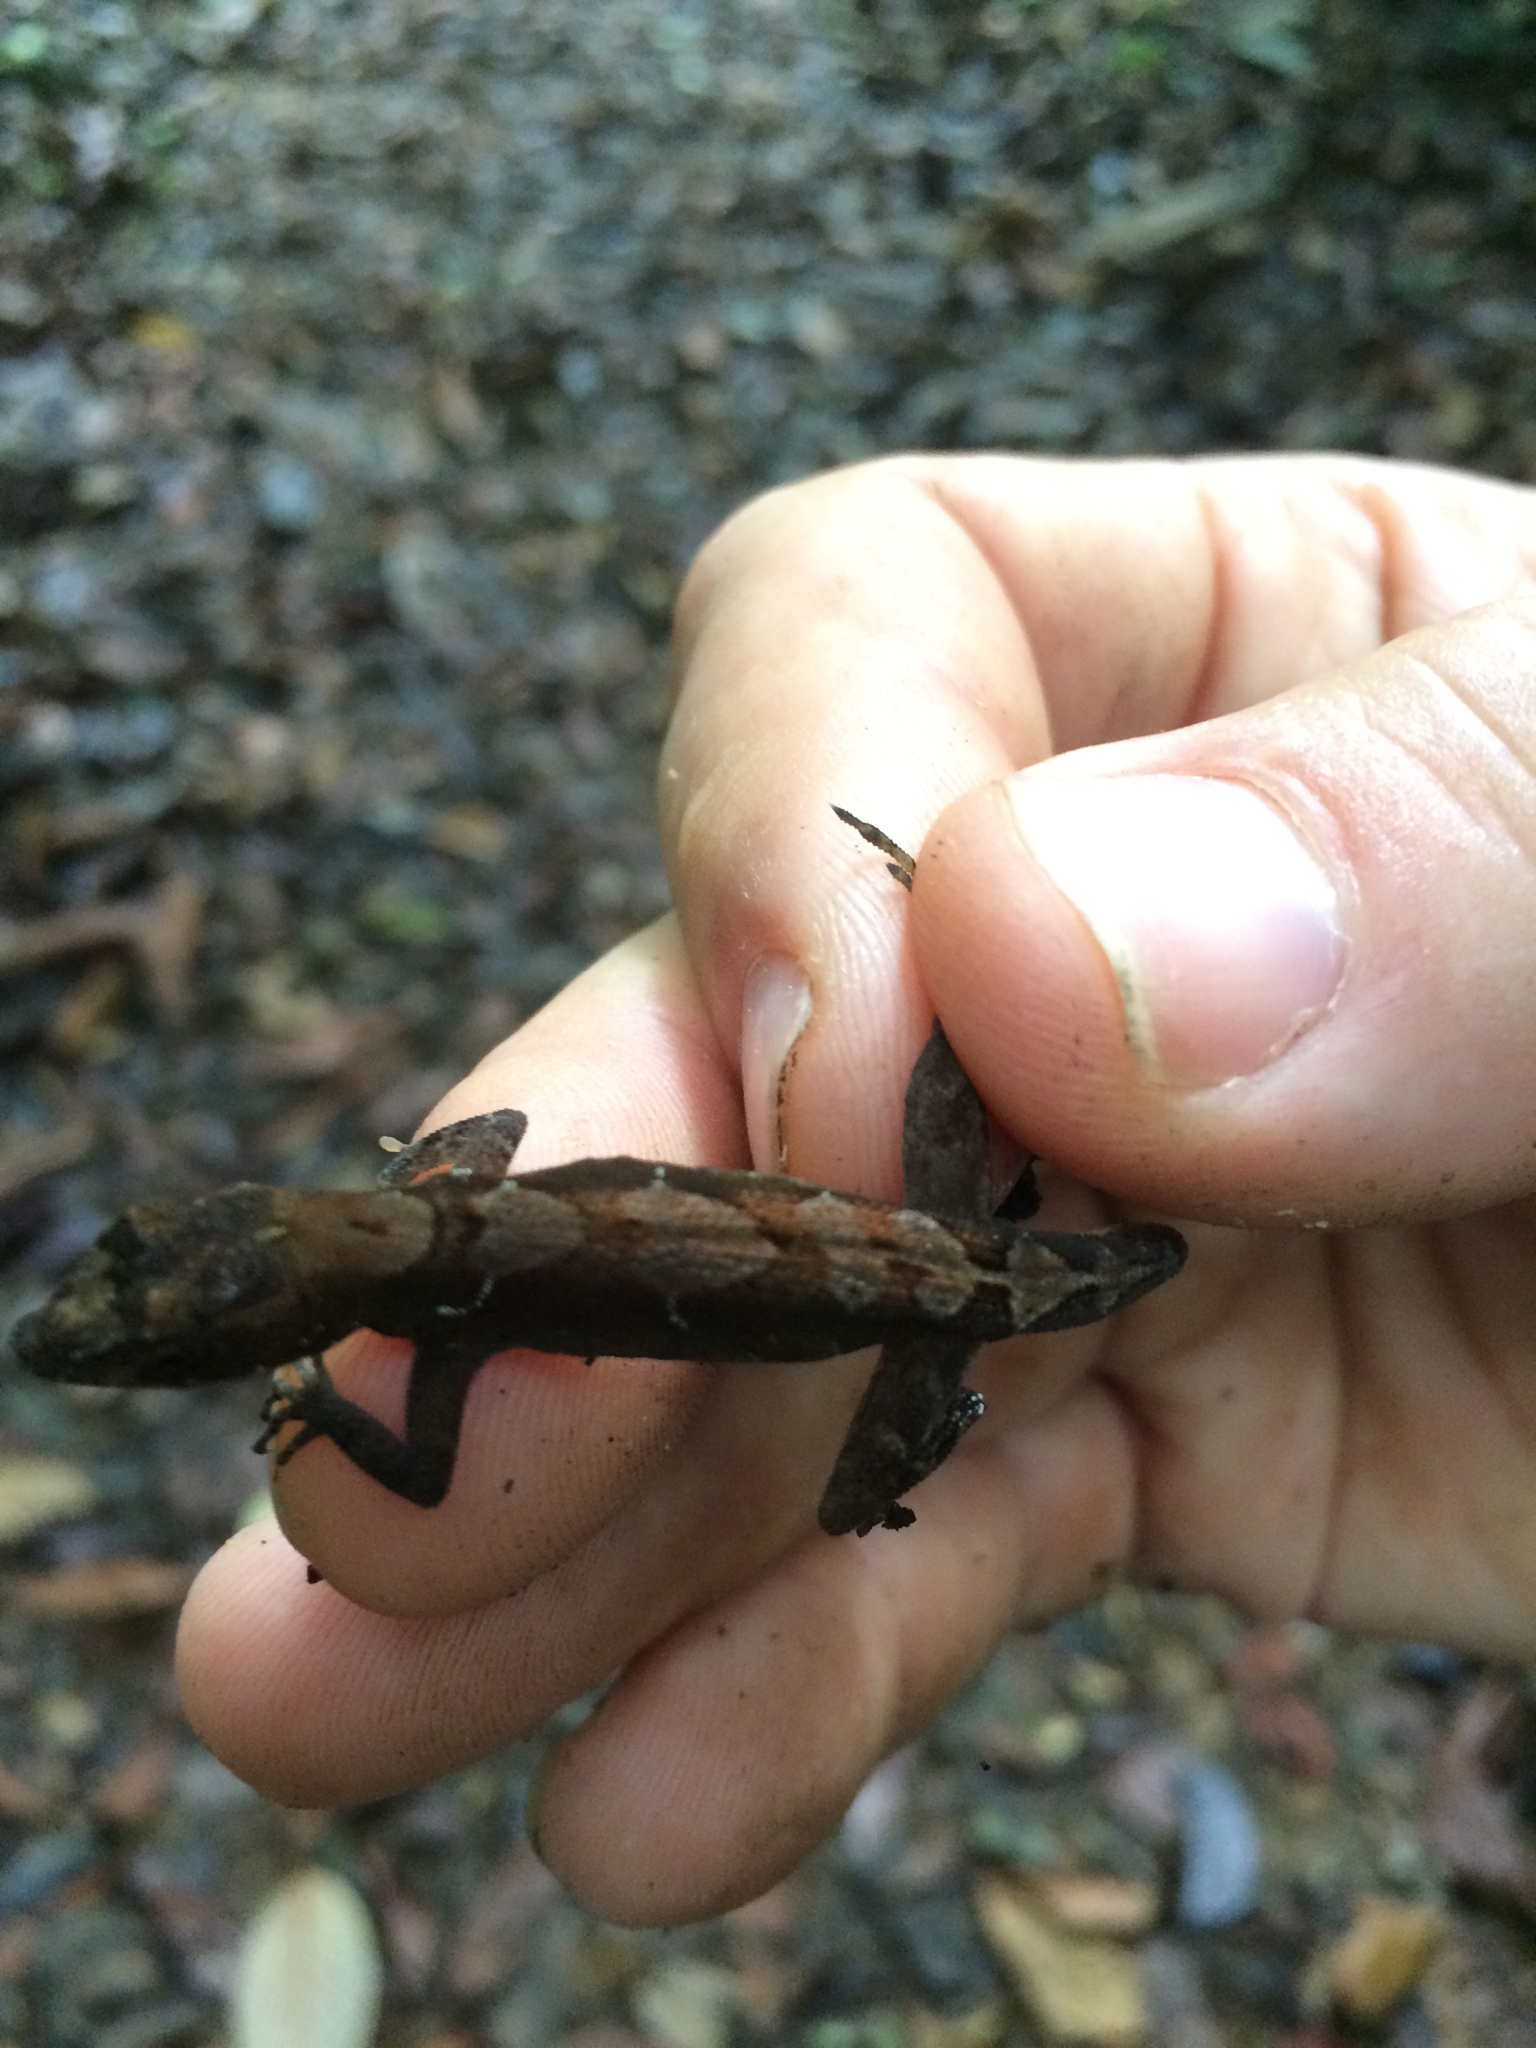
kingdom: Animalia
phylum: Chordata
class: Squamata
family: Dactyloidae
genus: Anolis
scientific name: Anolis humilis
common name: Humble anole
